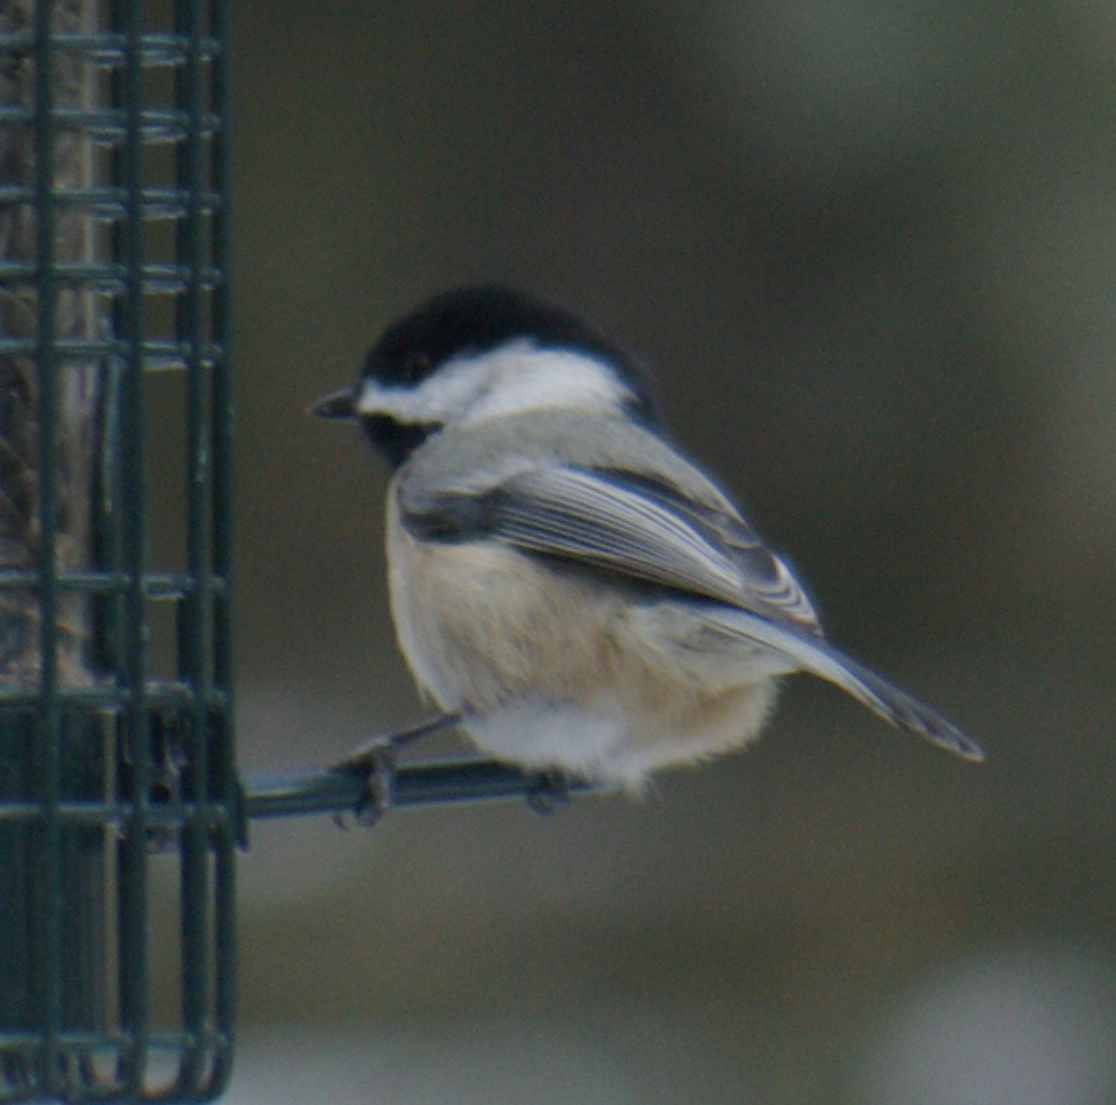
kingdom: Animalia
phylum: Chordata
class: Aves
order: Passeriformes
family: Paridae
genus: Poecile
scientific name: Poecile atricapillus
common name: Black-capped chickadee
